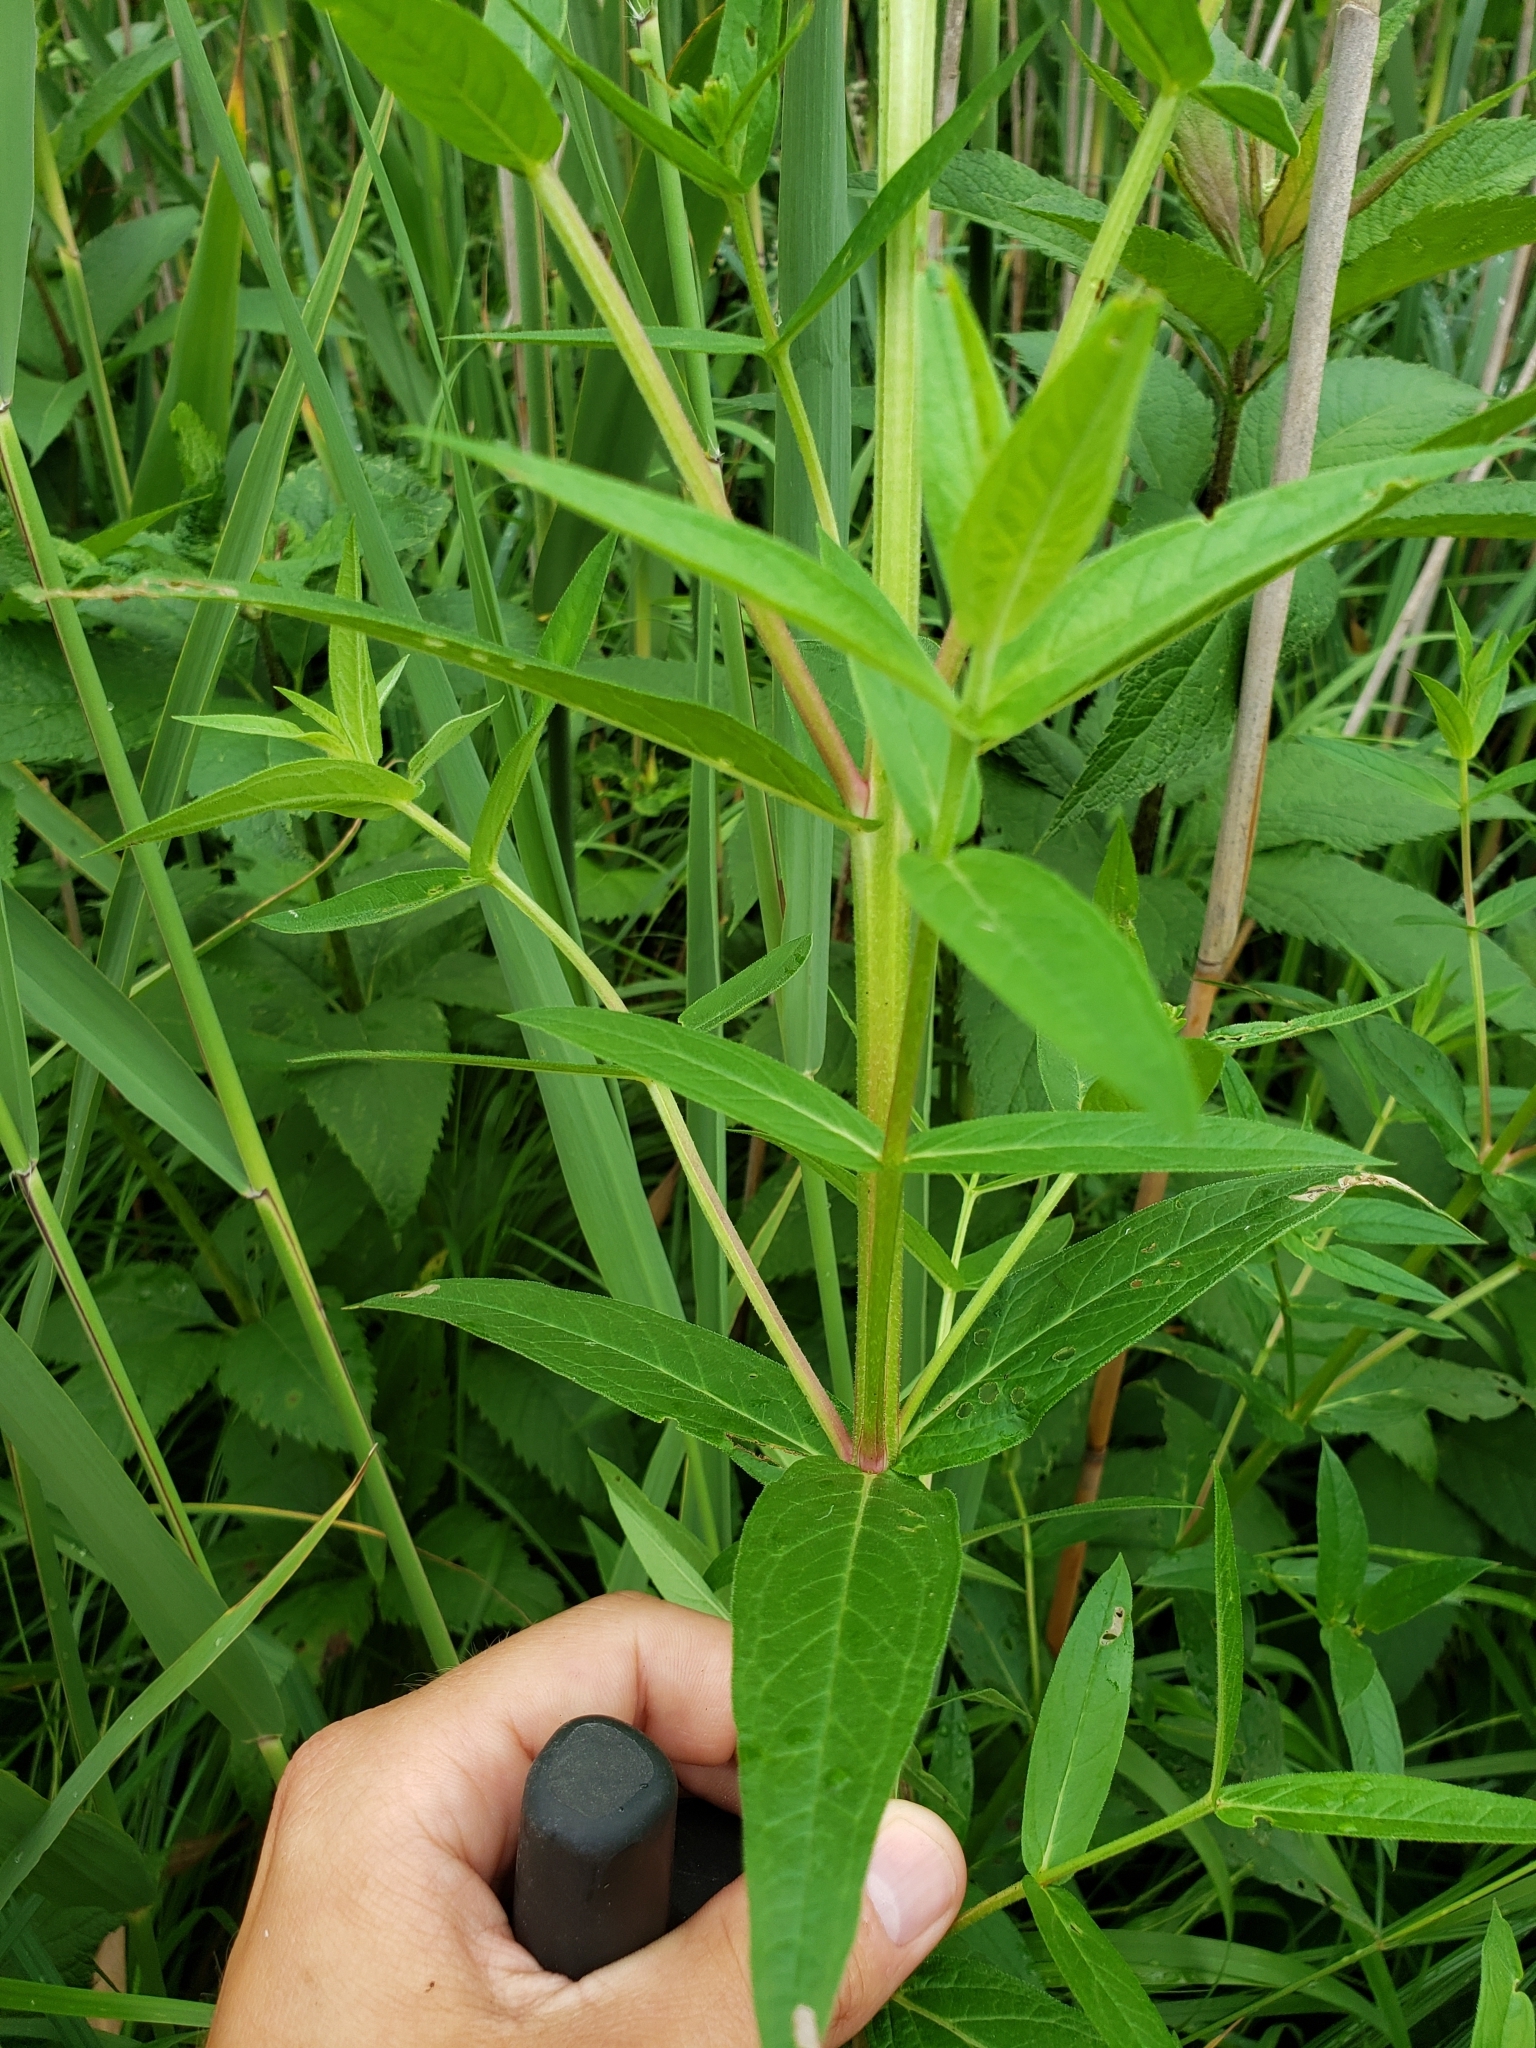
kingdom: Plantae
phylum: Tracheophyta
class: Magnoliopsida
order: Myrtales
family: Lythraceae
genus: Lythrum
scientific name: Lythrum salicaria
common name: Purple loosestrife
